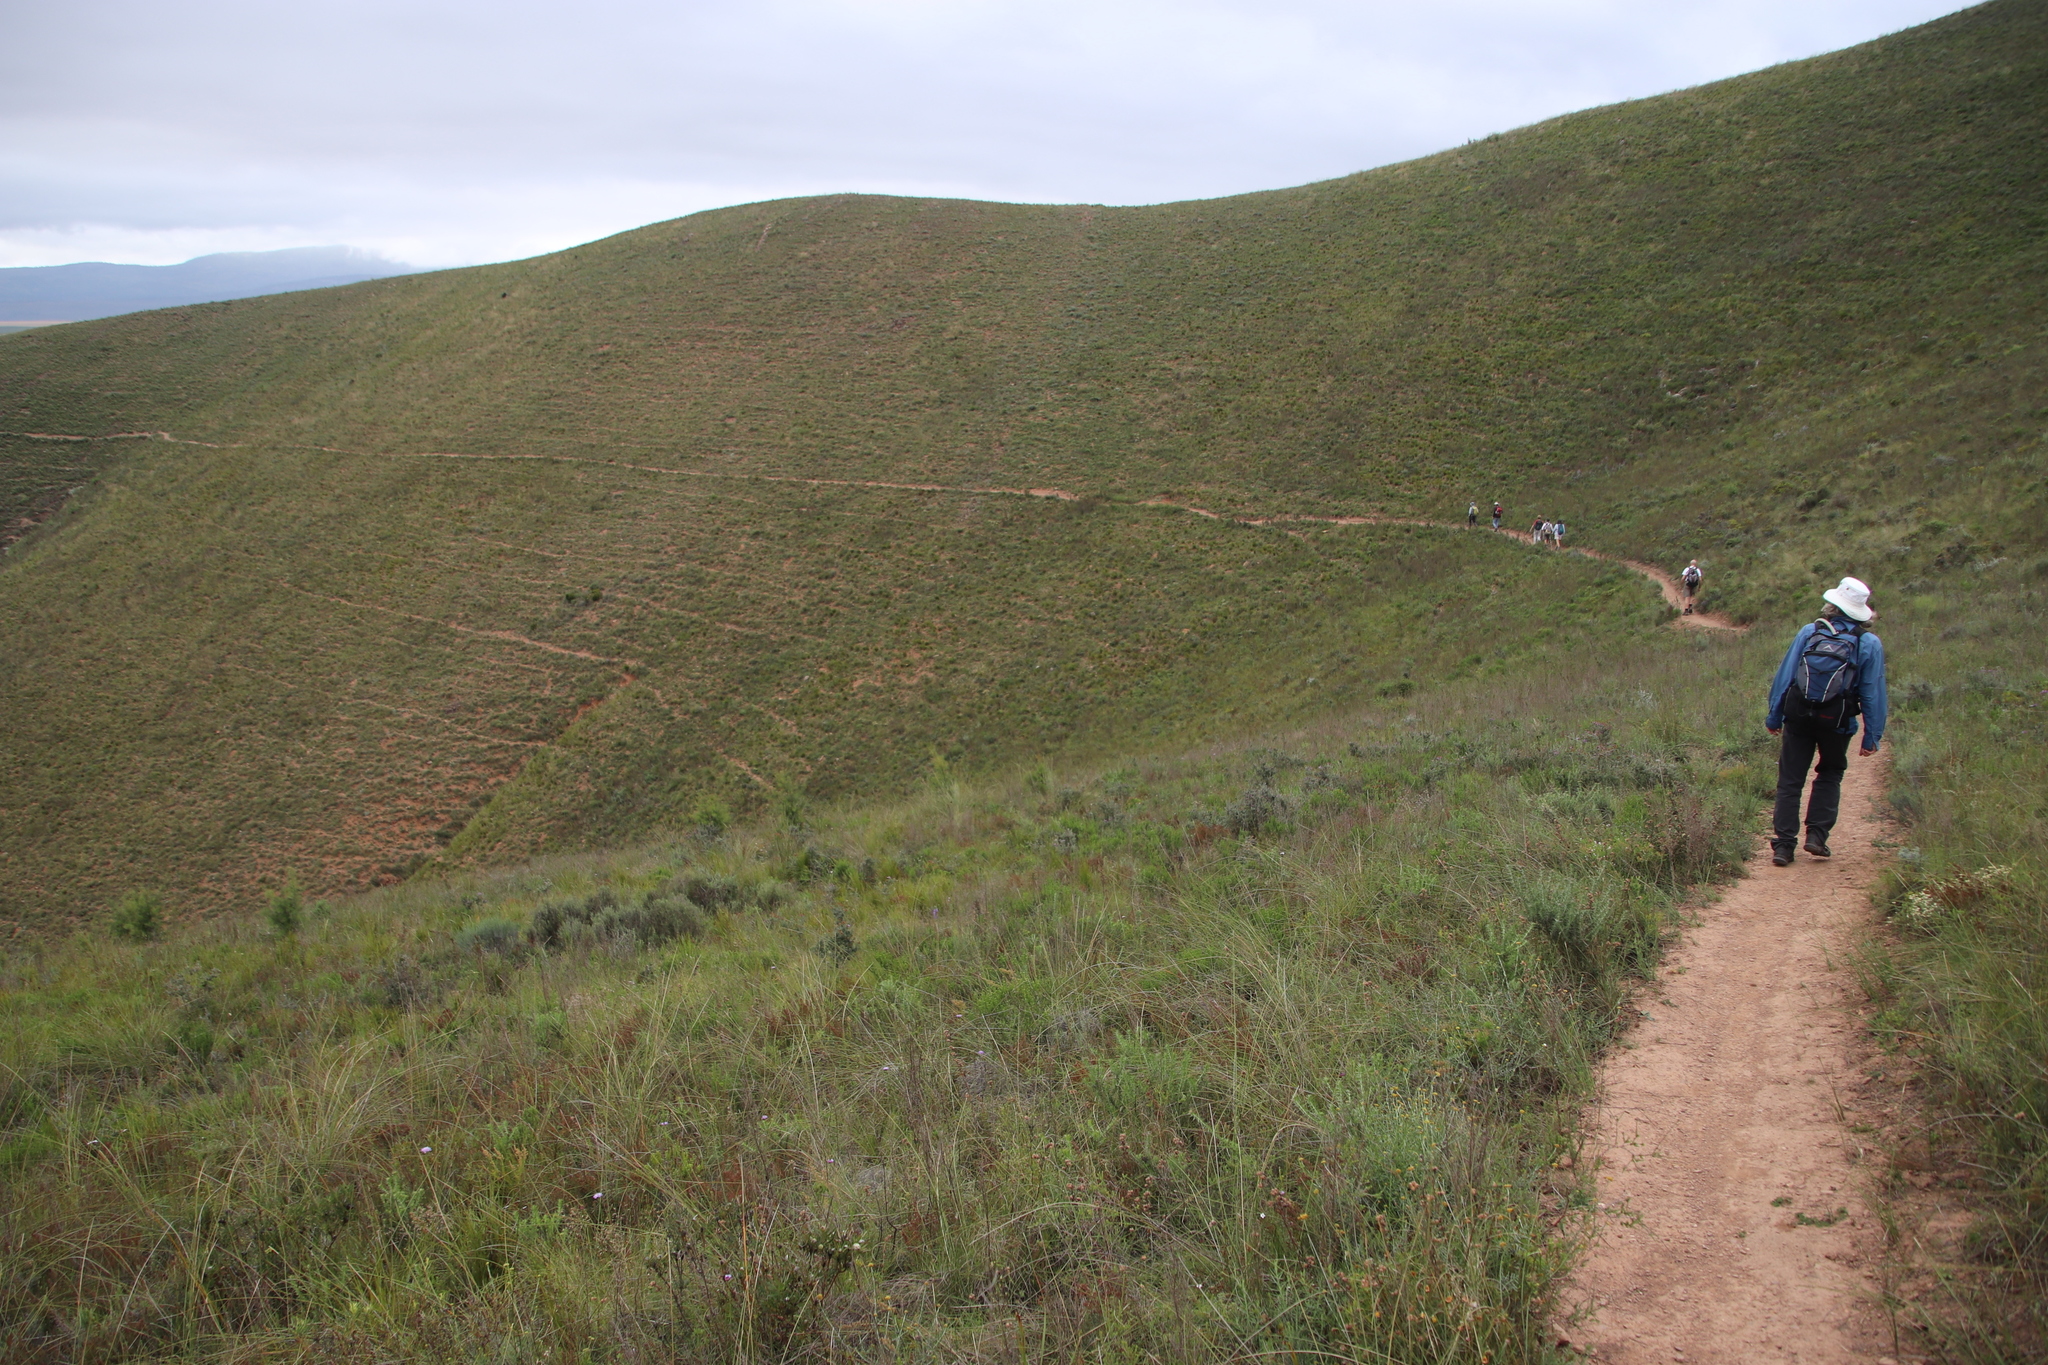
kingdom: Plantae
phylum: Tracheophyta
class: Magnoliopsida
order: Asterales
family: Asteraceae
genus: Dicerothamnus
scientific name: Dicerothamnus rhinocerotis
